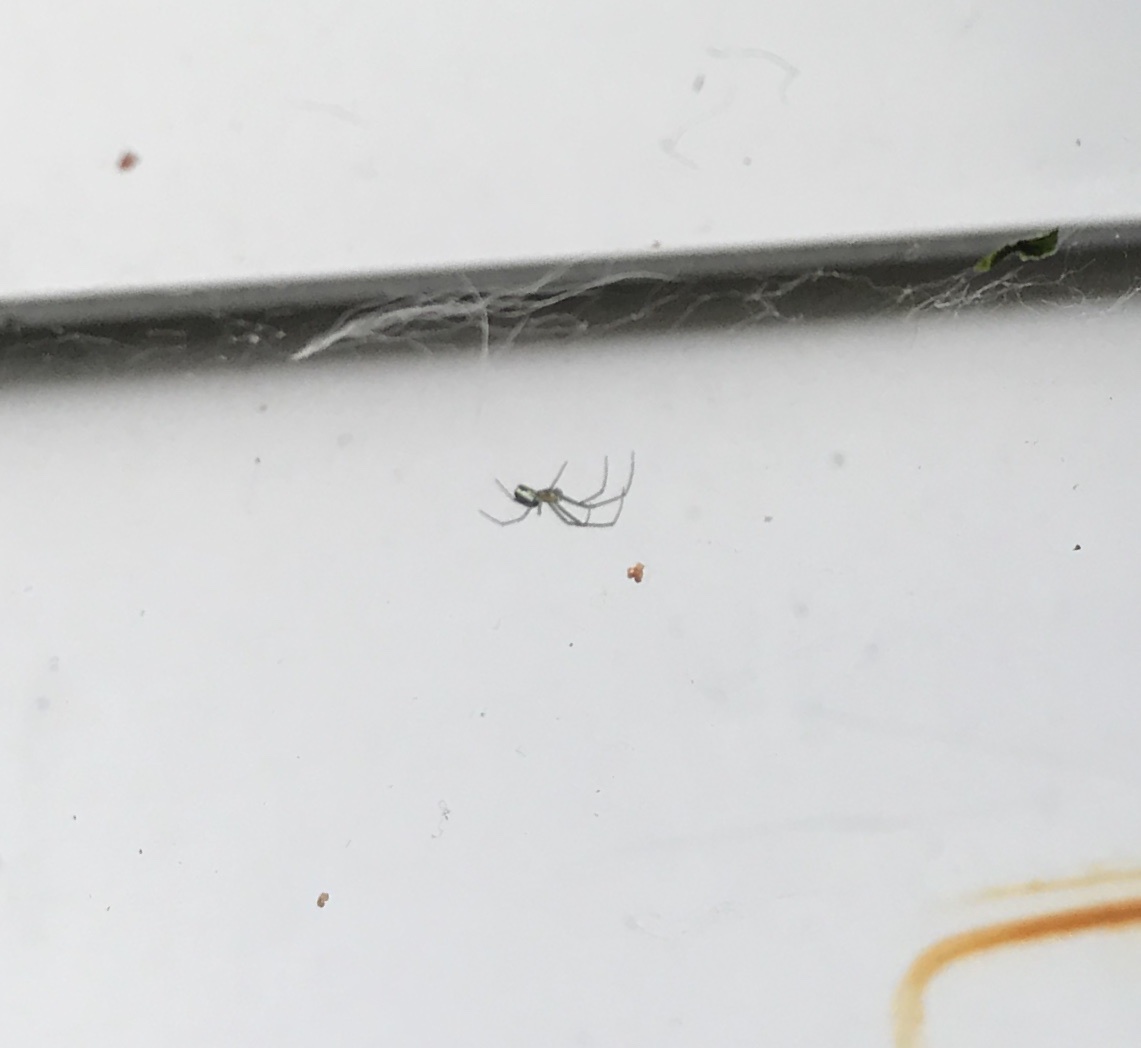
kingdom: Animalia
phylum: Arthropoda
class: Arachnida
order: Araneae
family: Tetragnathidae
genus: Leucauge
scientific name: Leucauge venusta
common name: Longjawed orb weavers
